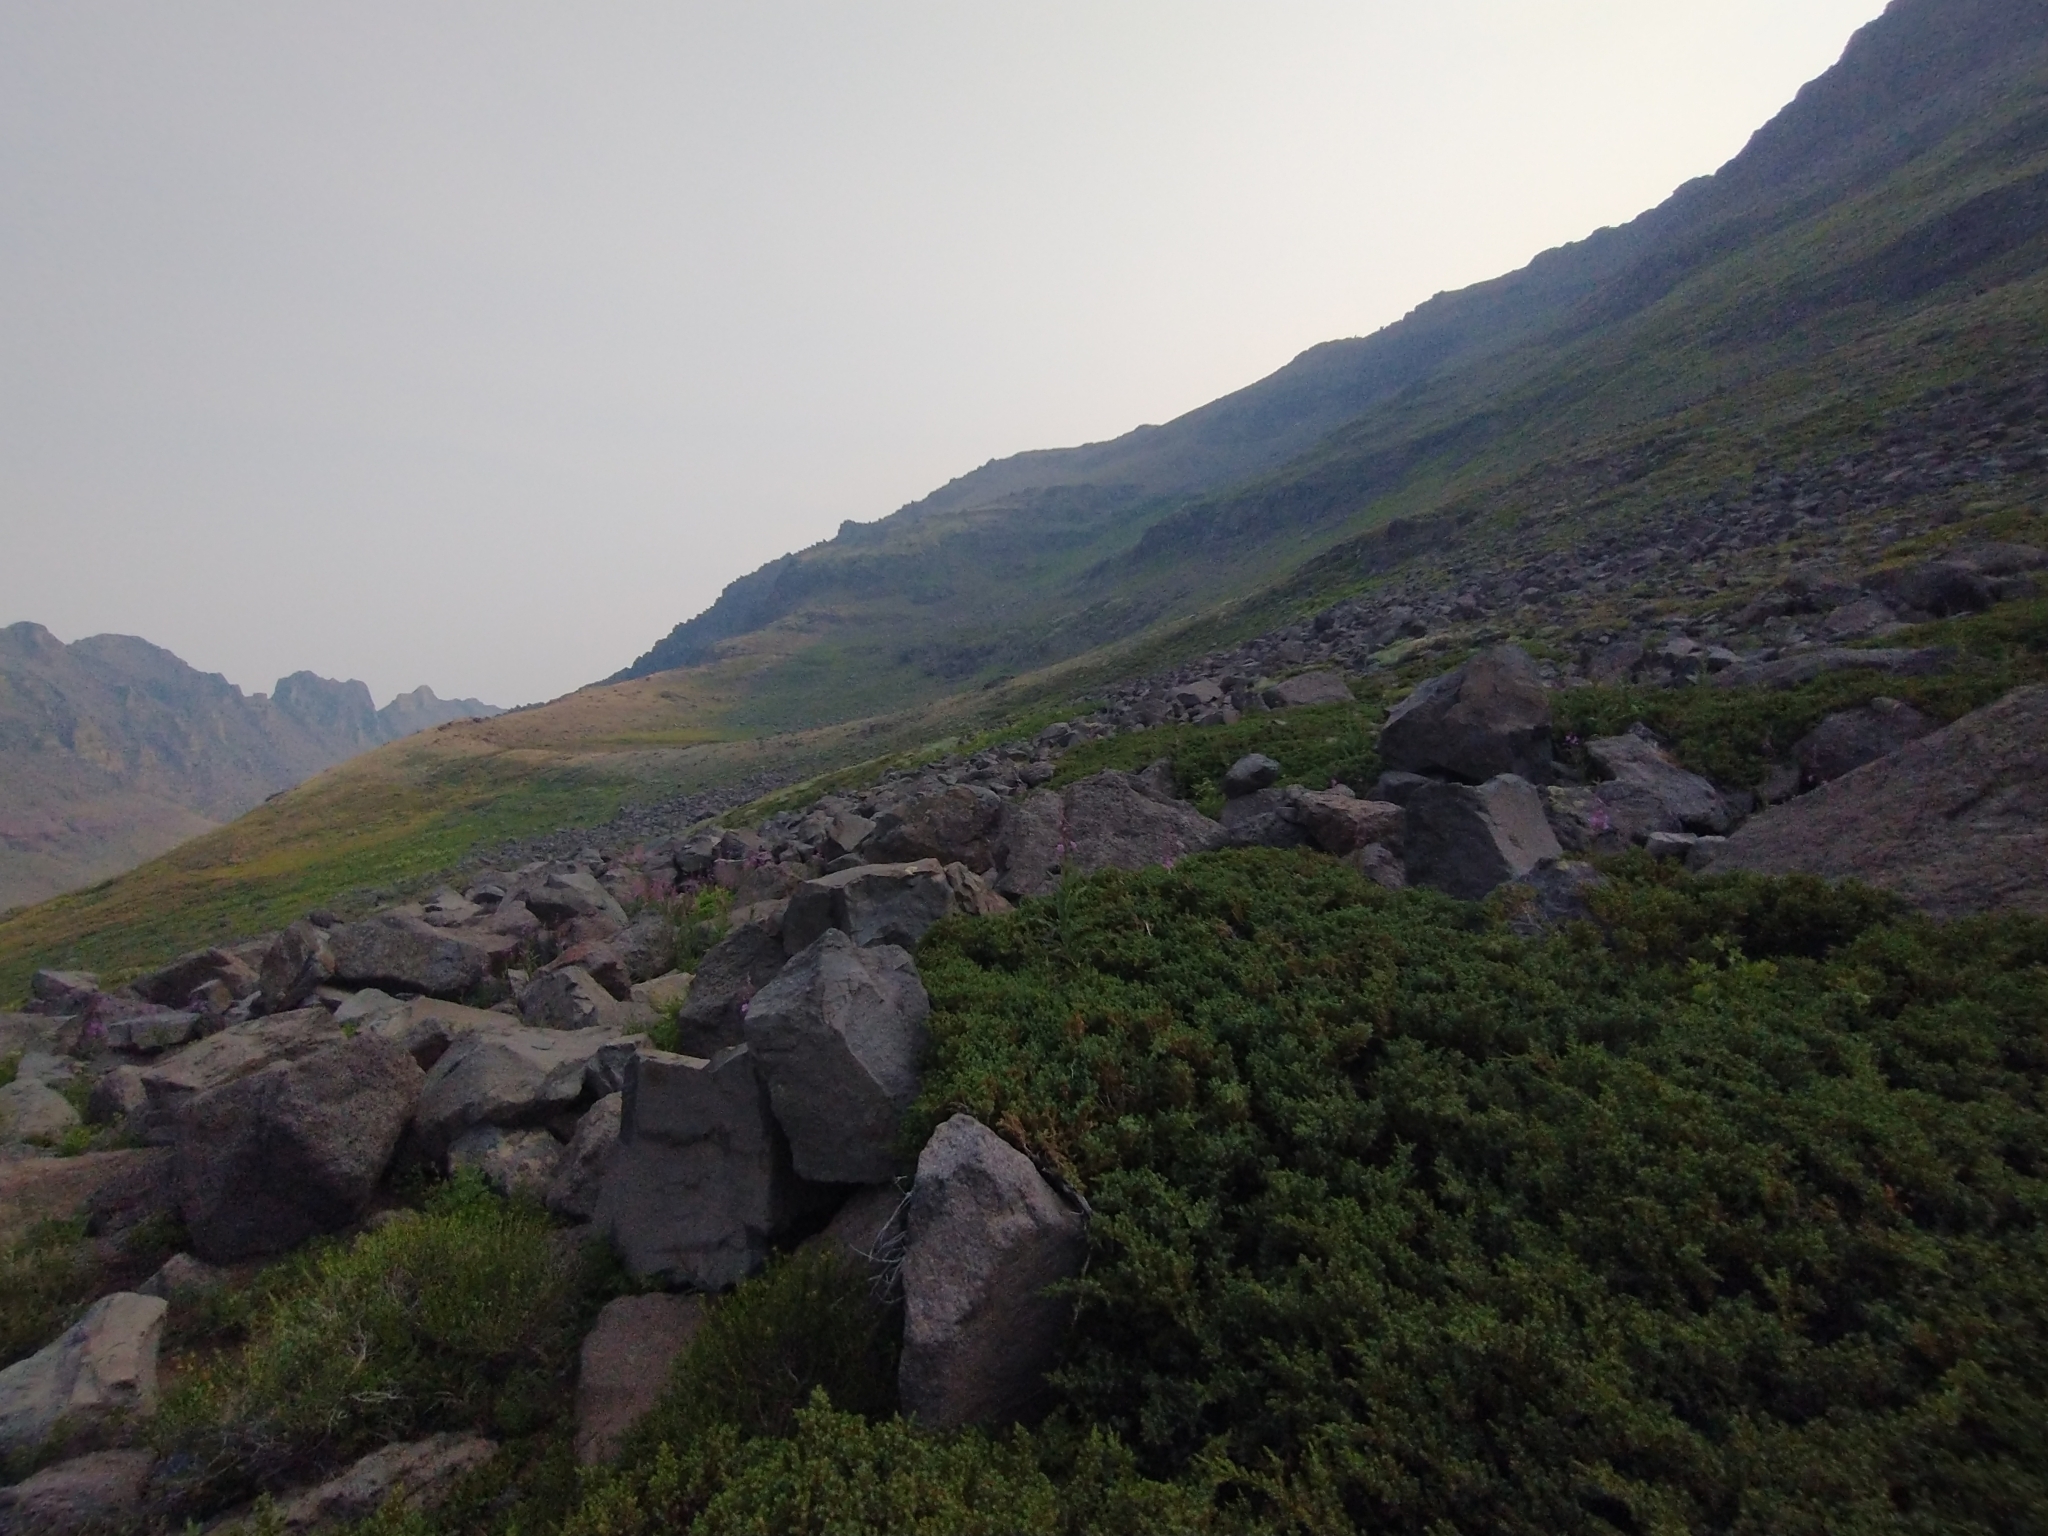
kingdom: Plantae
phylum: Tracheophyta
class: Pinopsida
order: Pinales
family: Cupressaceae
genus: Juniperus
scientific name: Juniperus communis
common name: Common juniper
